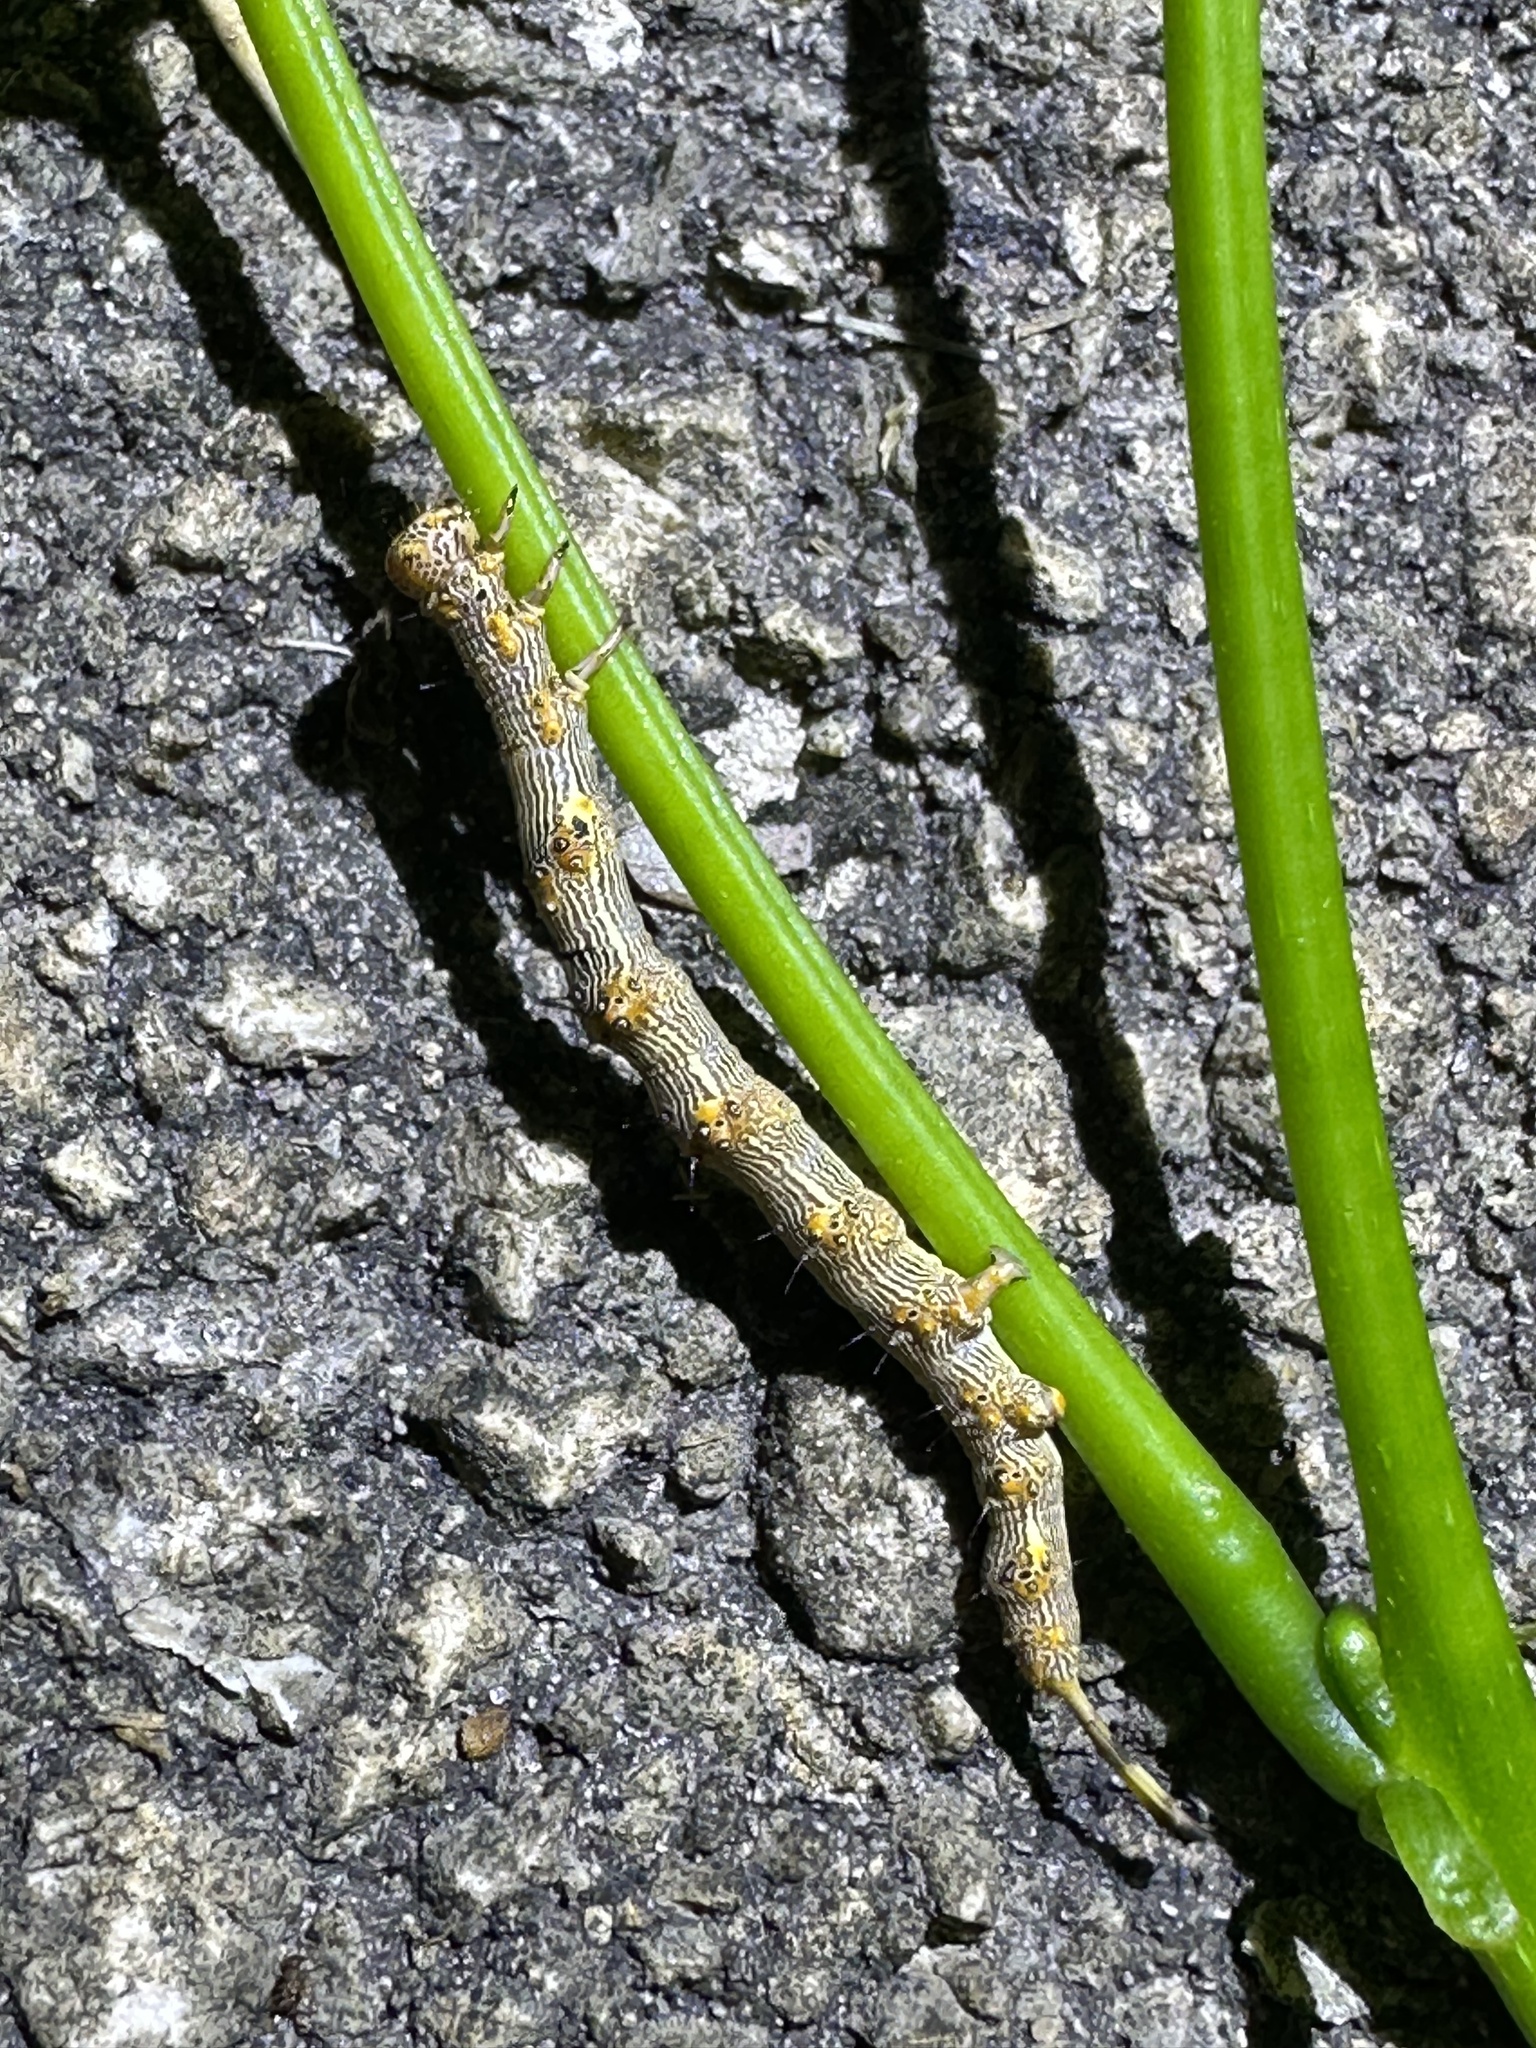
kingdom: Animalia
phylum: Arthropoda
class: Insecta
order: Lepidoptera
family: Erebidae
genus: Selenisa
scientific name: Selenisa sueroides
